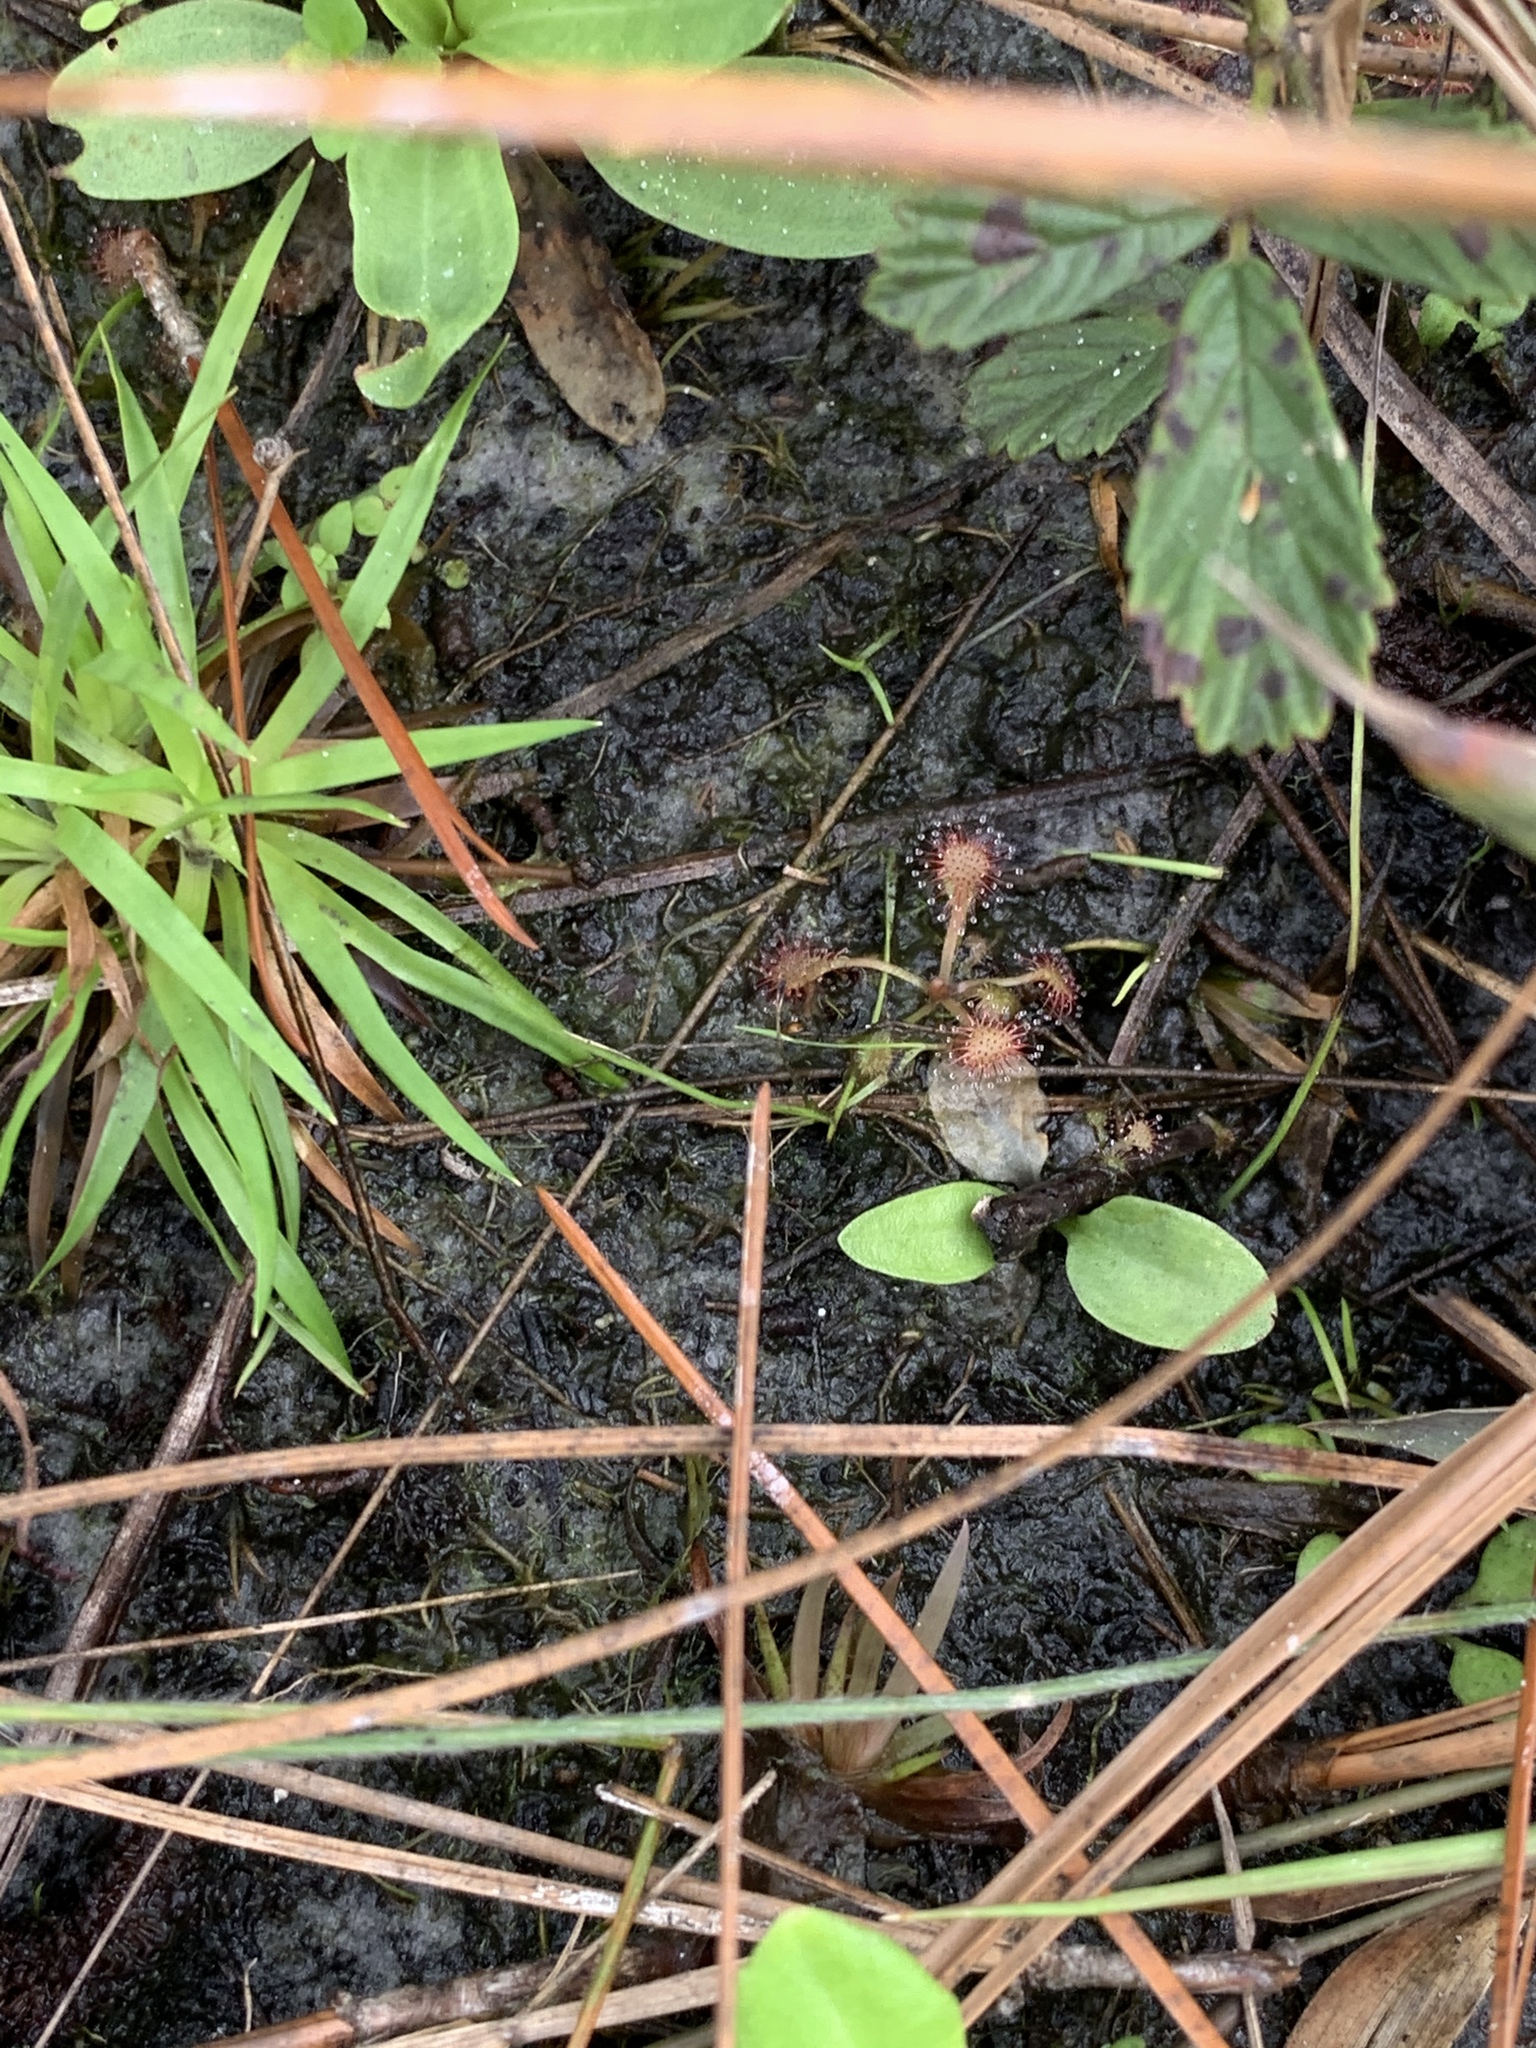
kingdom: Plantae
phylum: Tracheophyta
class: Magnoliopsida
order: Caryophyllales
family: Droseraceae
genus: Drosera
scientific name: Drosera capillaris
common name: Pink sundew
